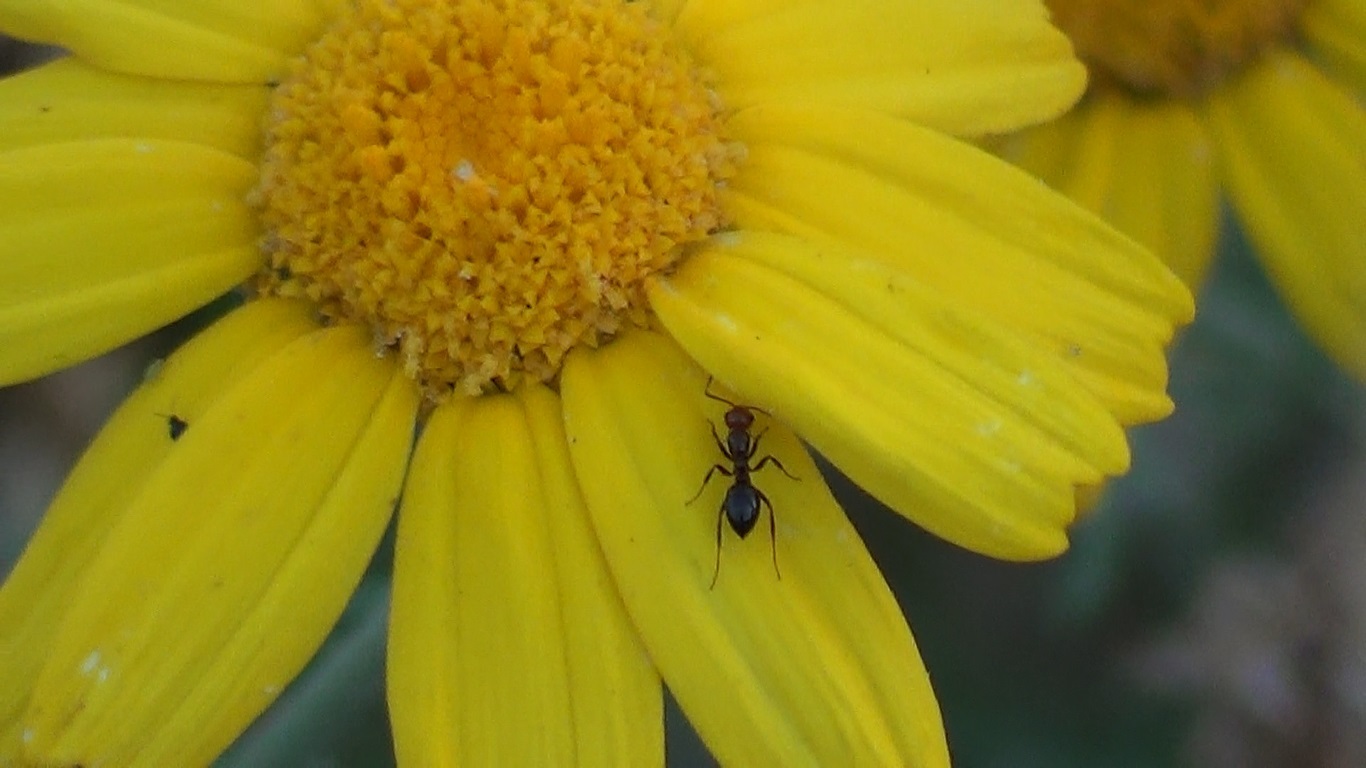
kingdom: Animalia
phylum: Arthropoda
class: Insecta
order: Hymenoptera
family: Formicidae
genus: Camponotus
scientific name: Camponotus lateralis
